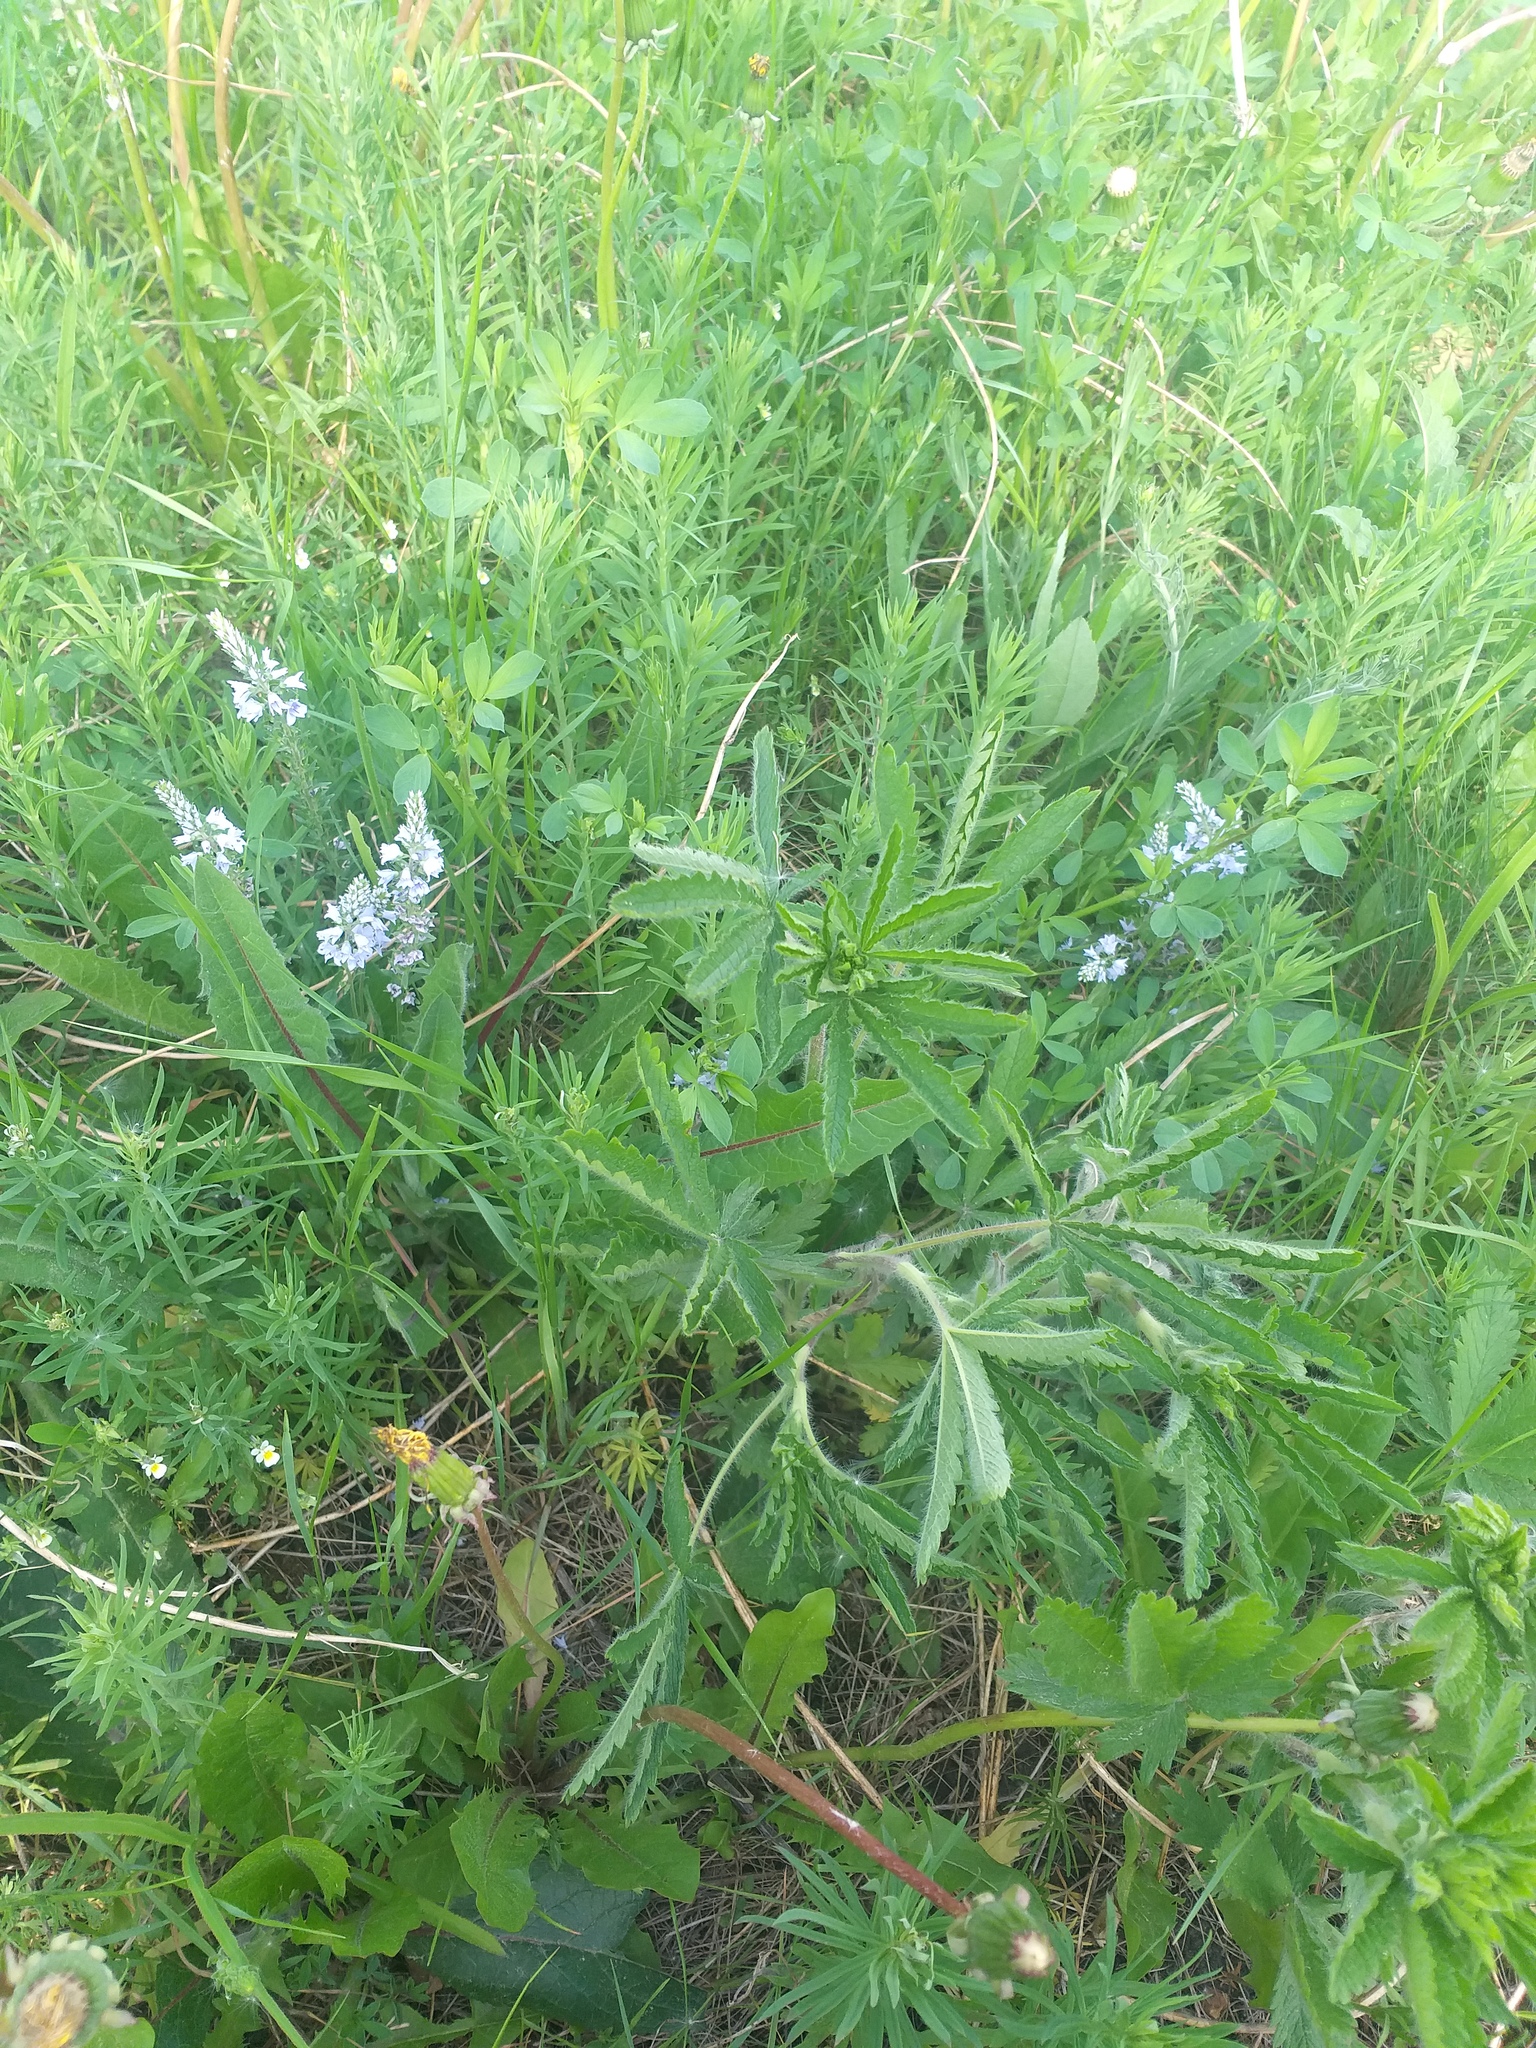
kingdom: Plantae
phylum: Tracheophyta
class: Magnoliopsida
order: Rosales
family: Rosaceae
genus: Potentilla
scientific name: Potentilla recta
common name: Sulphur cinquefoil
